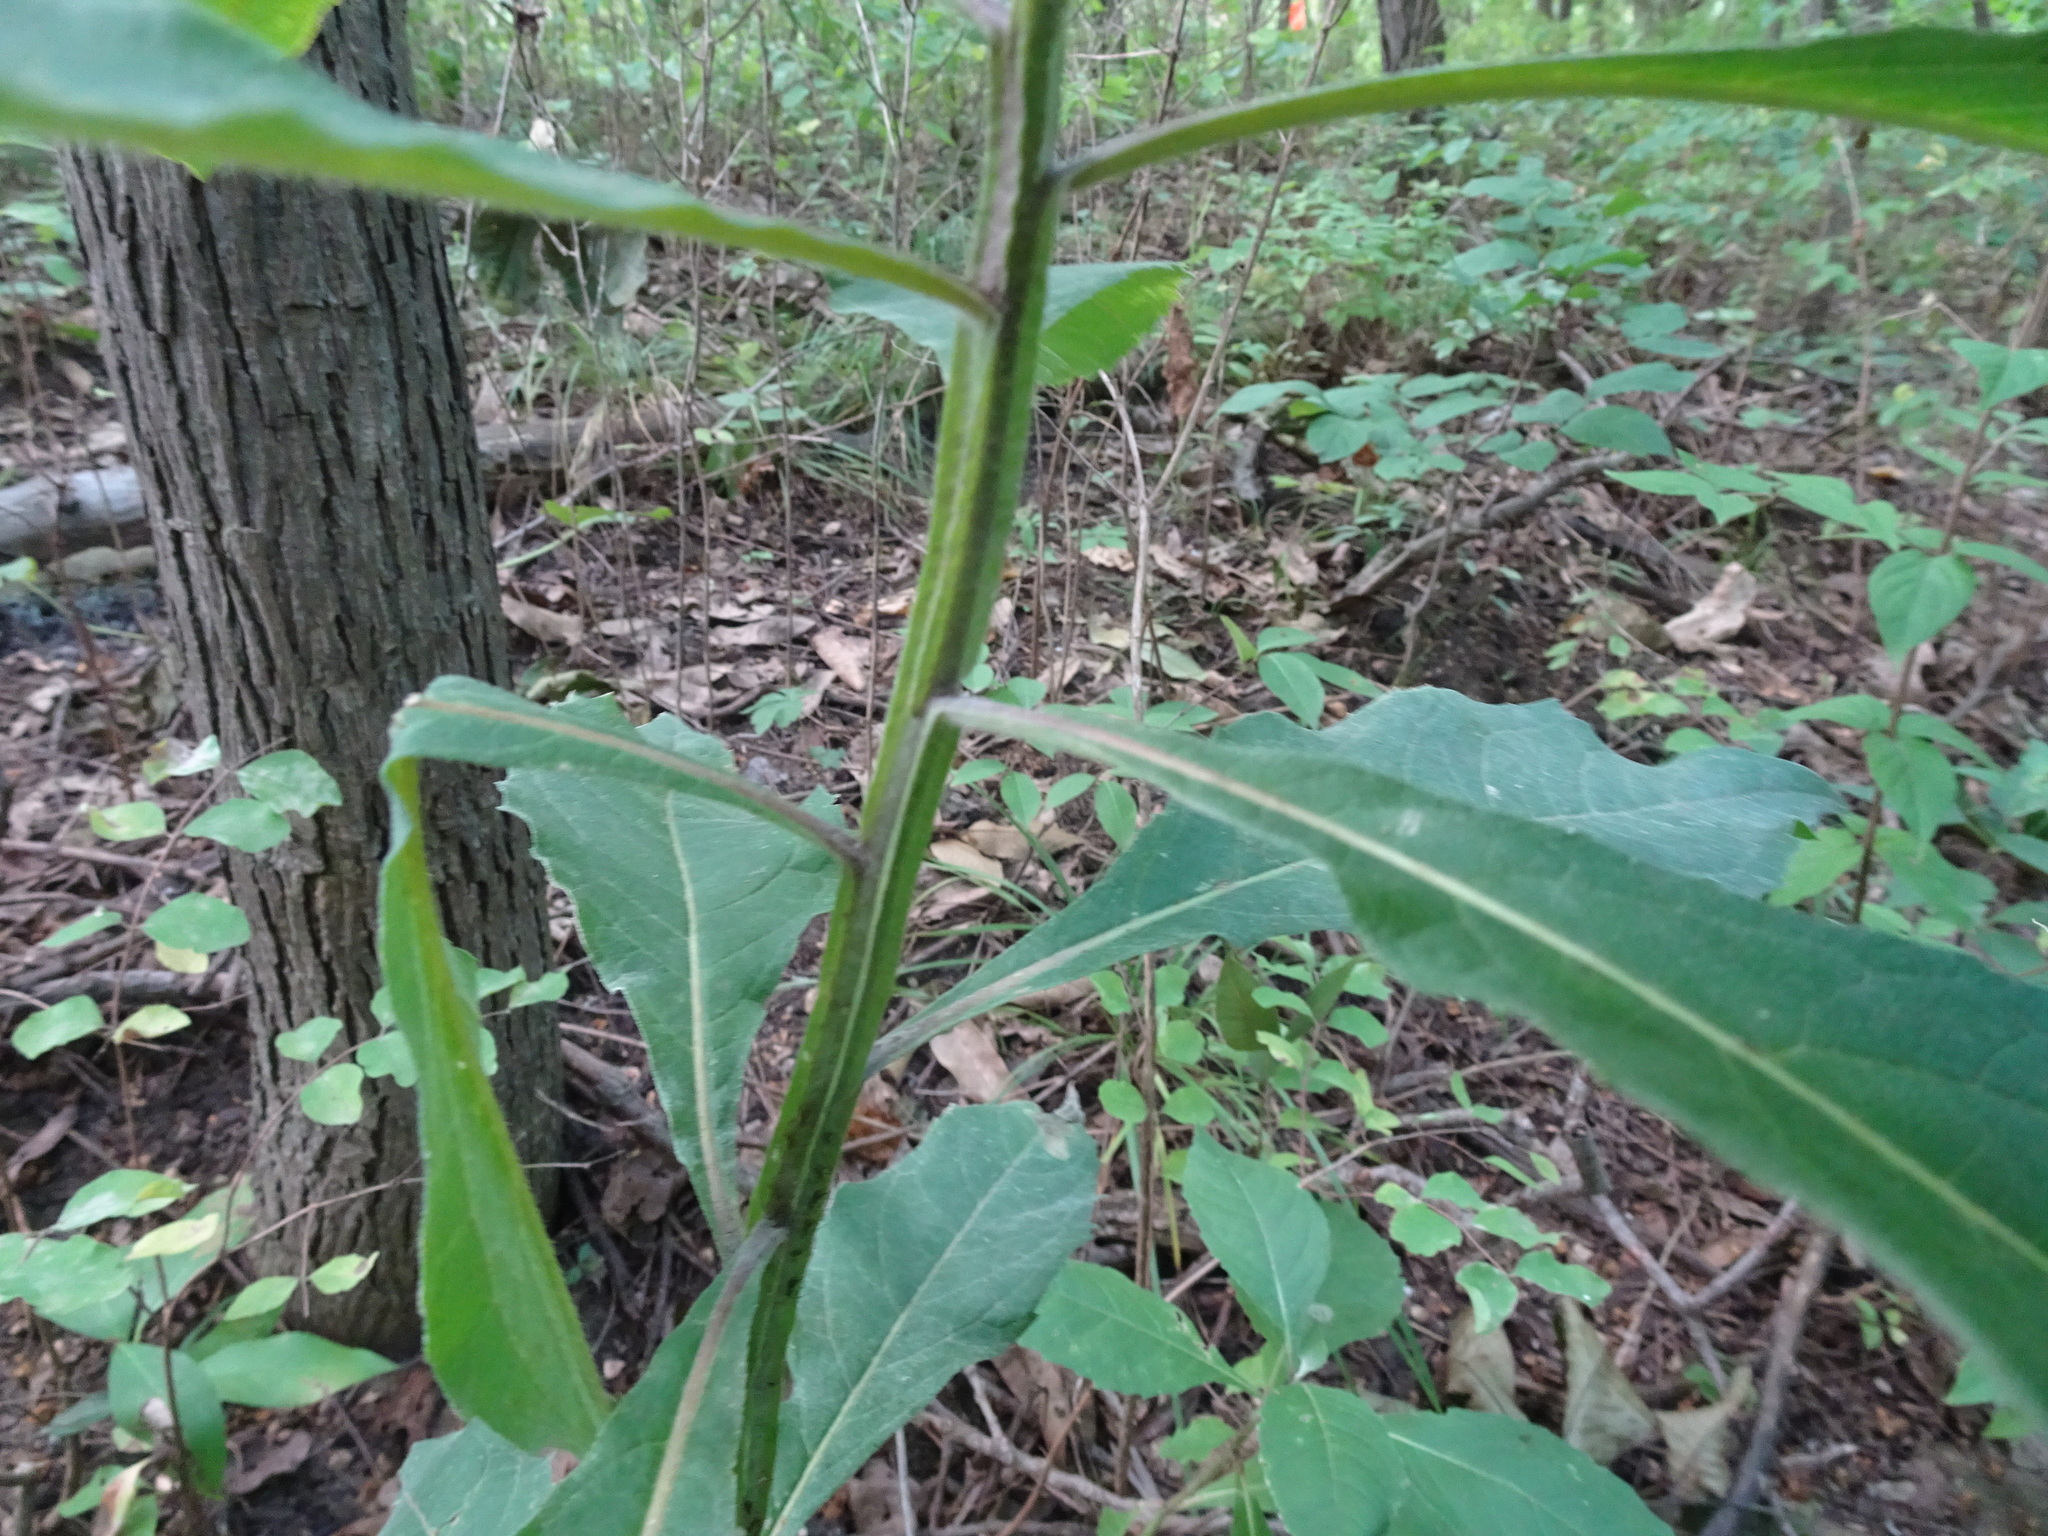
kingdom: Plantae
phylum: Tracheophyta
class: Magnoliopsida
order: Asterales
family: Asteraceae
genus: Verbesina
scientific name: Verbesina alternifolia
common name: Wingstem
